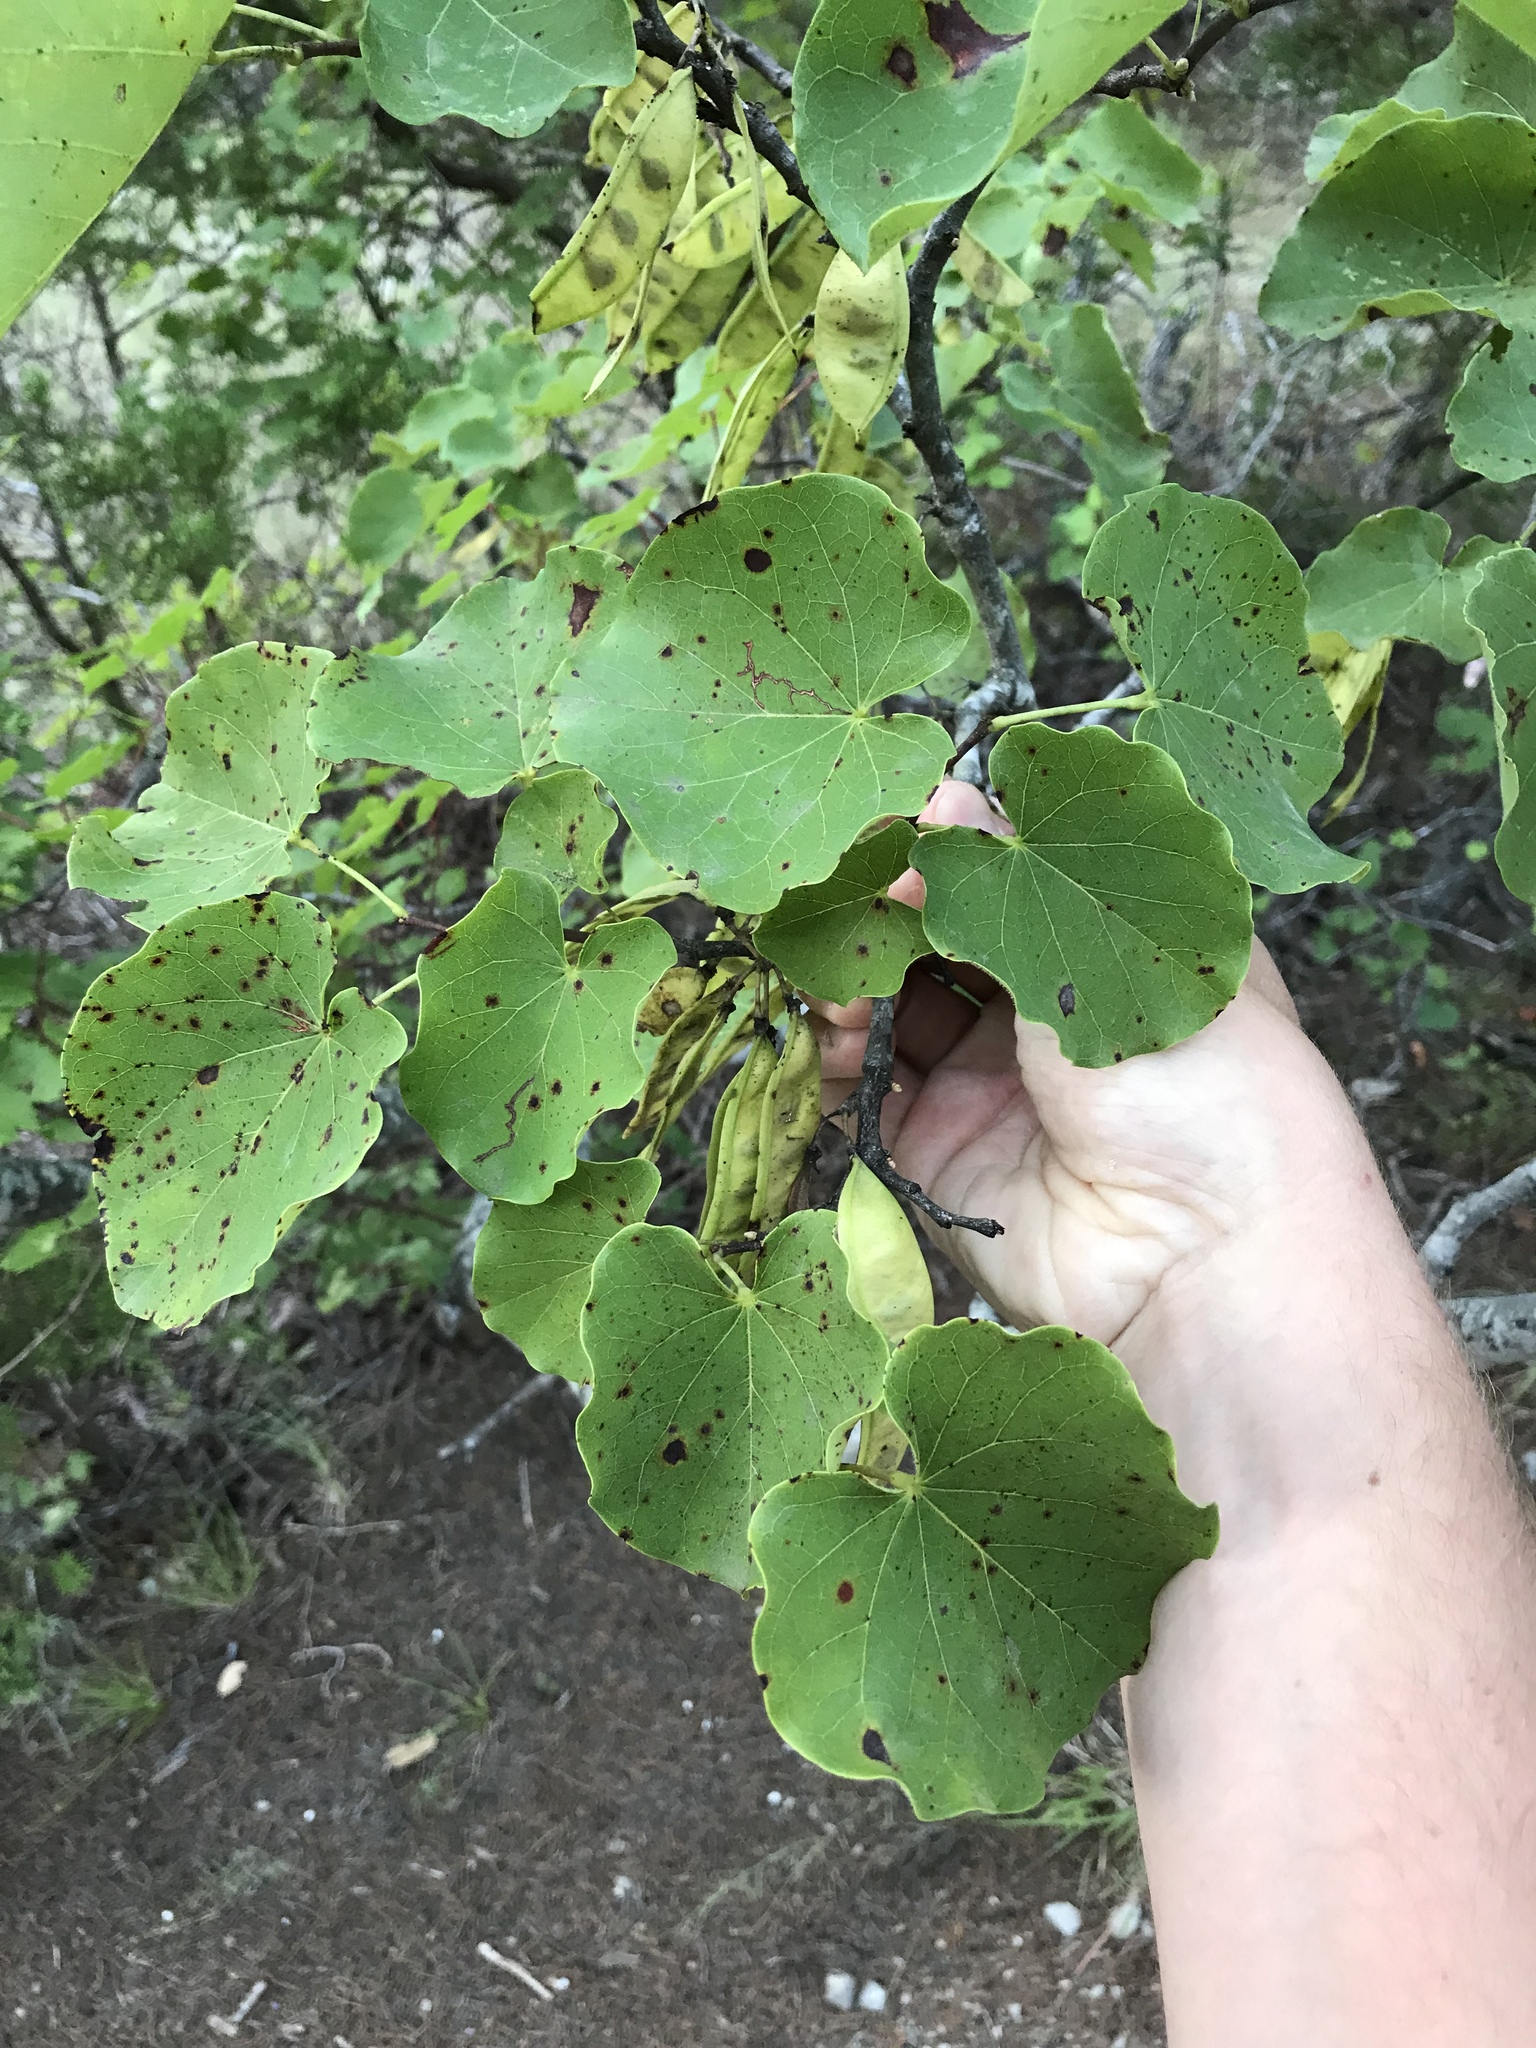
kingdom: Plantae
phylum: Tracheophyta
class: Magnoliopsida
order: Fabales
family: Fabaceae
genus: Cercis
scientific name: Cercis canadensis
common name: Eastern redbud
